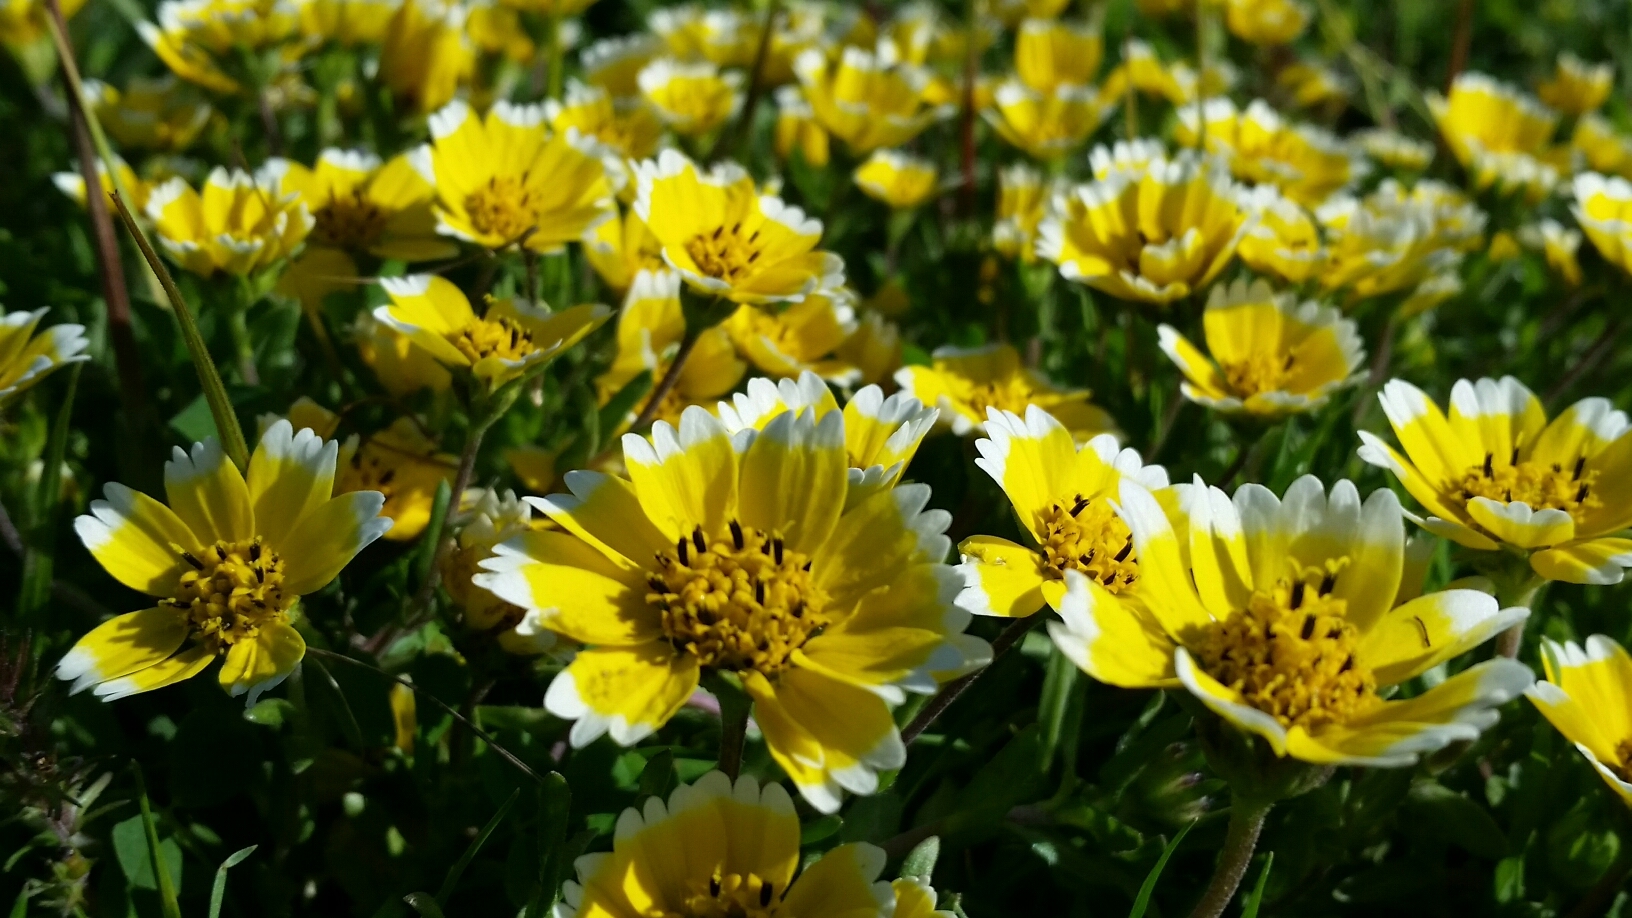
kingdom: Plantae
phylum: Tracheophyta
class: Magnoliopsida
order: Asterales
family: Asteraceae
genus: Layia
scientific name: Layia chrysanthemoides
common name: Smooth layia
